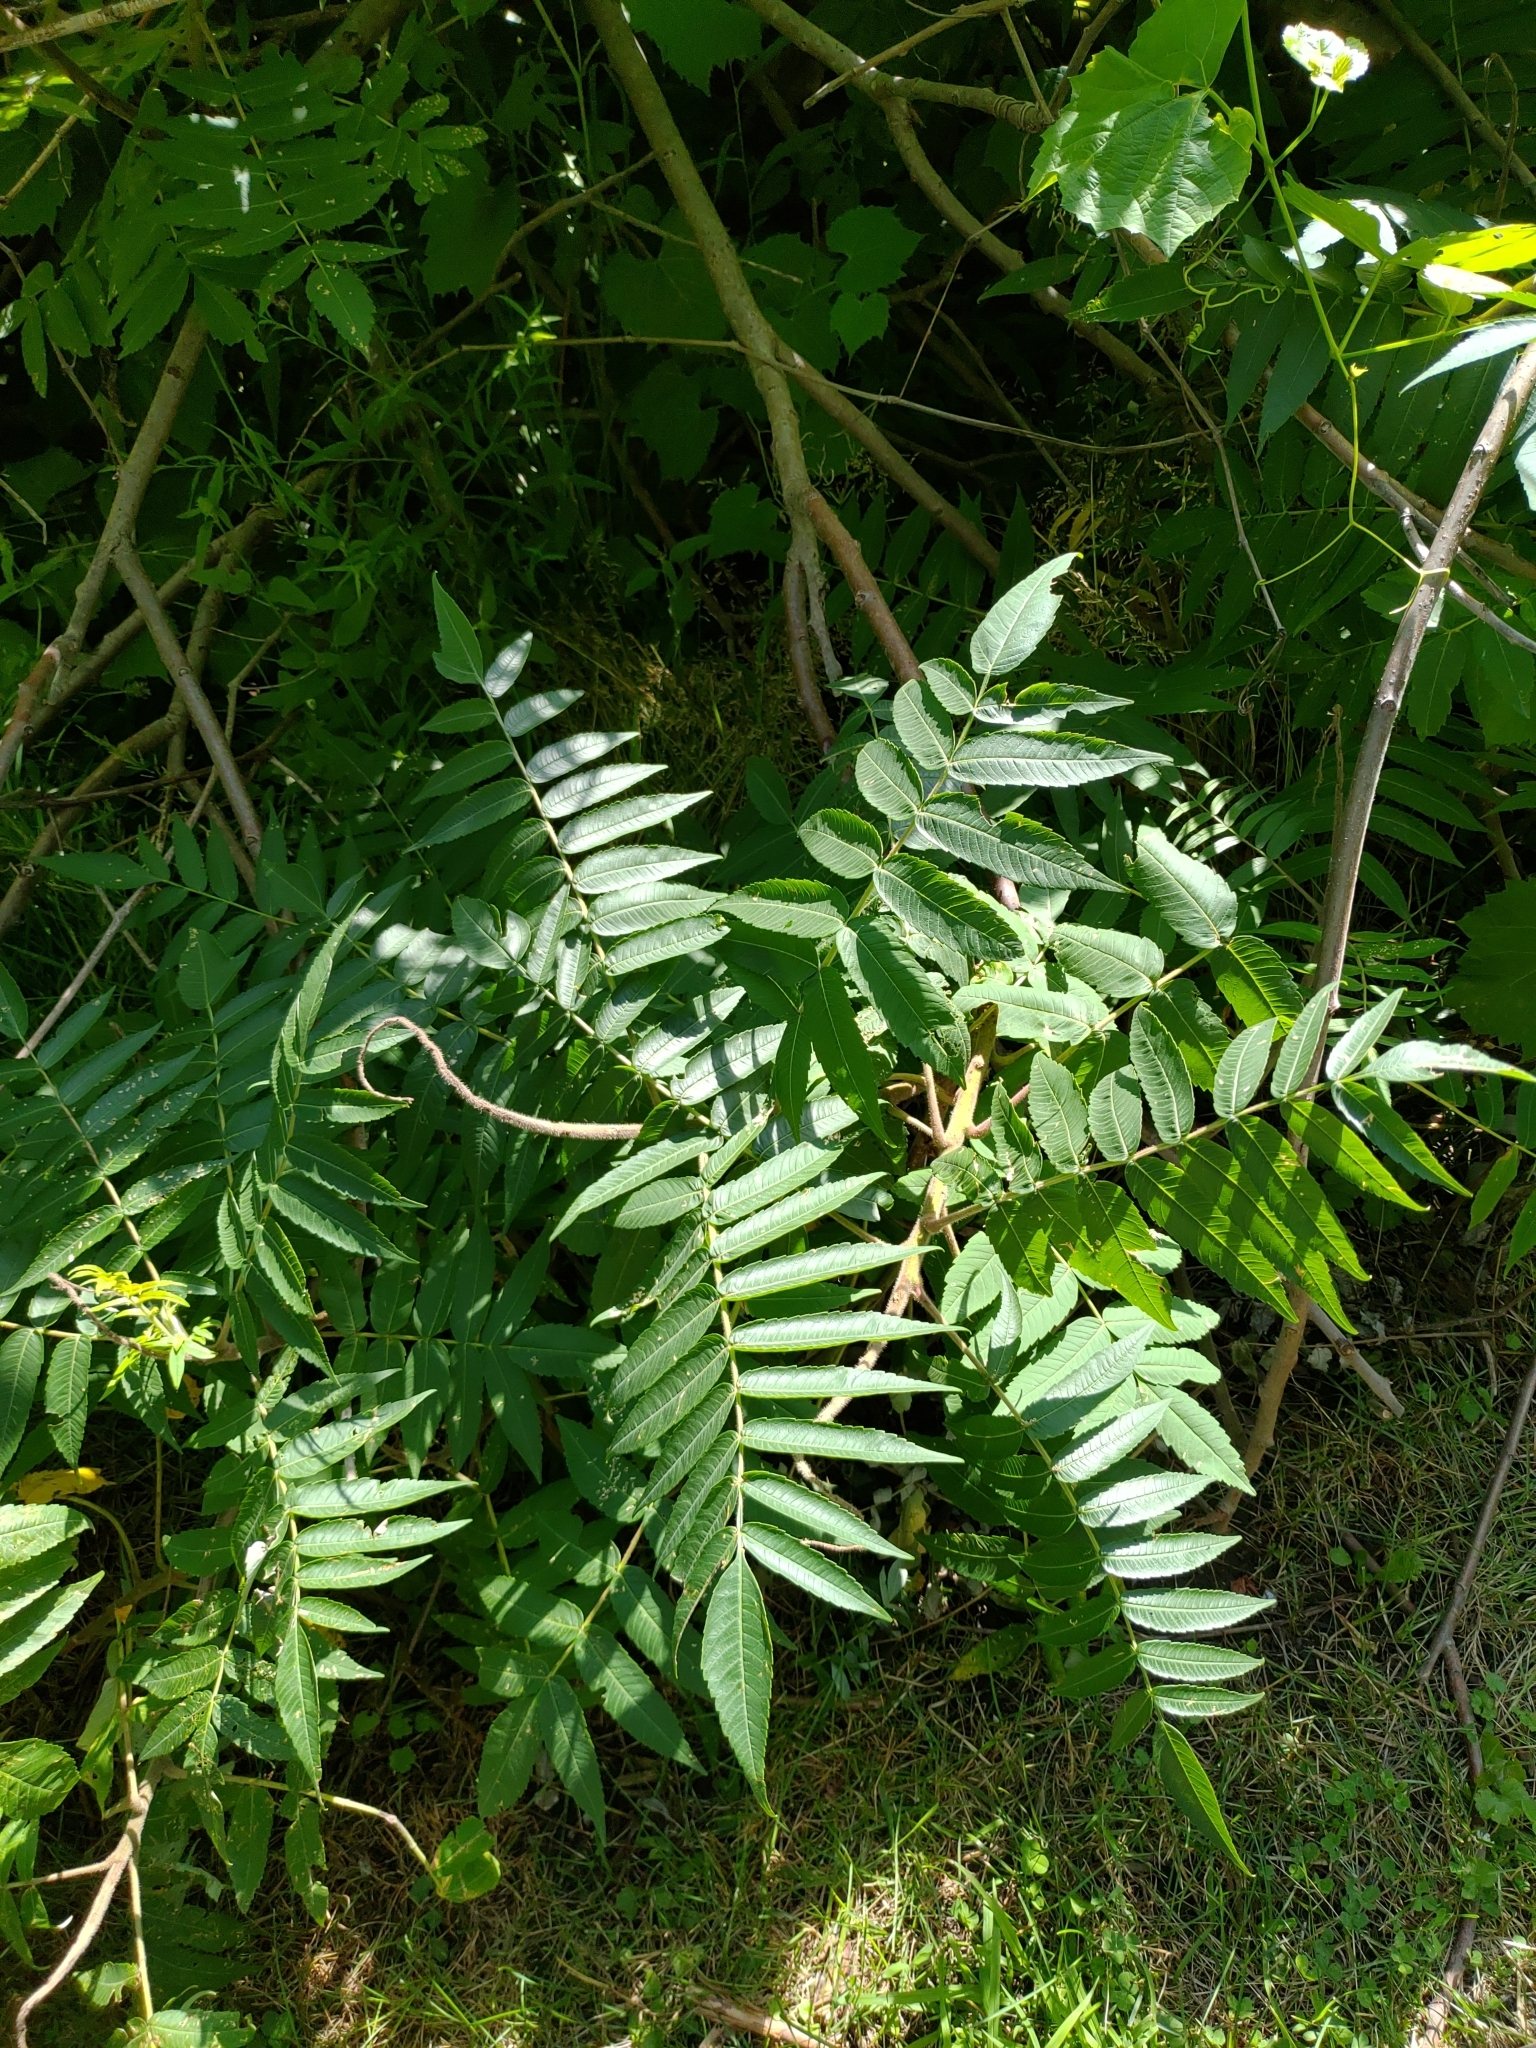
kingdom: Plantae
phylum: Tracheophyta
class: Magnoliopsida
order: Sapindales
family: Anacardiaceae
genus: Rhus
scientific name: Rhus typhina
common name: Staghorn sumac
